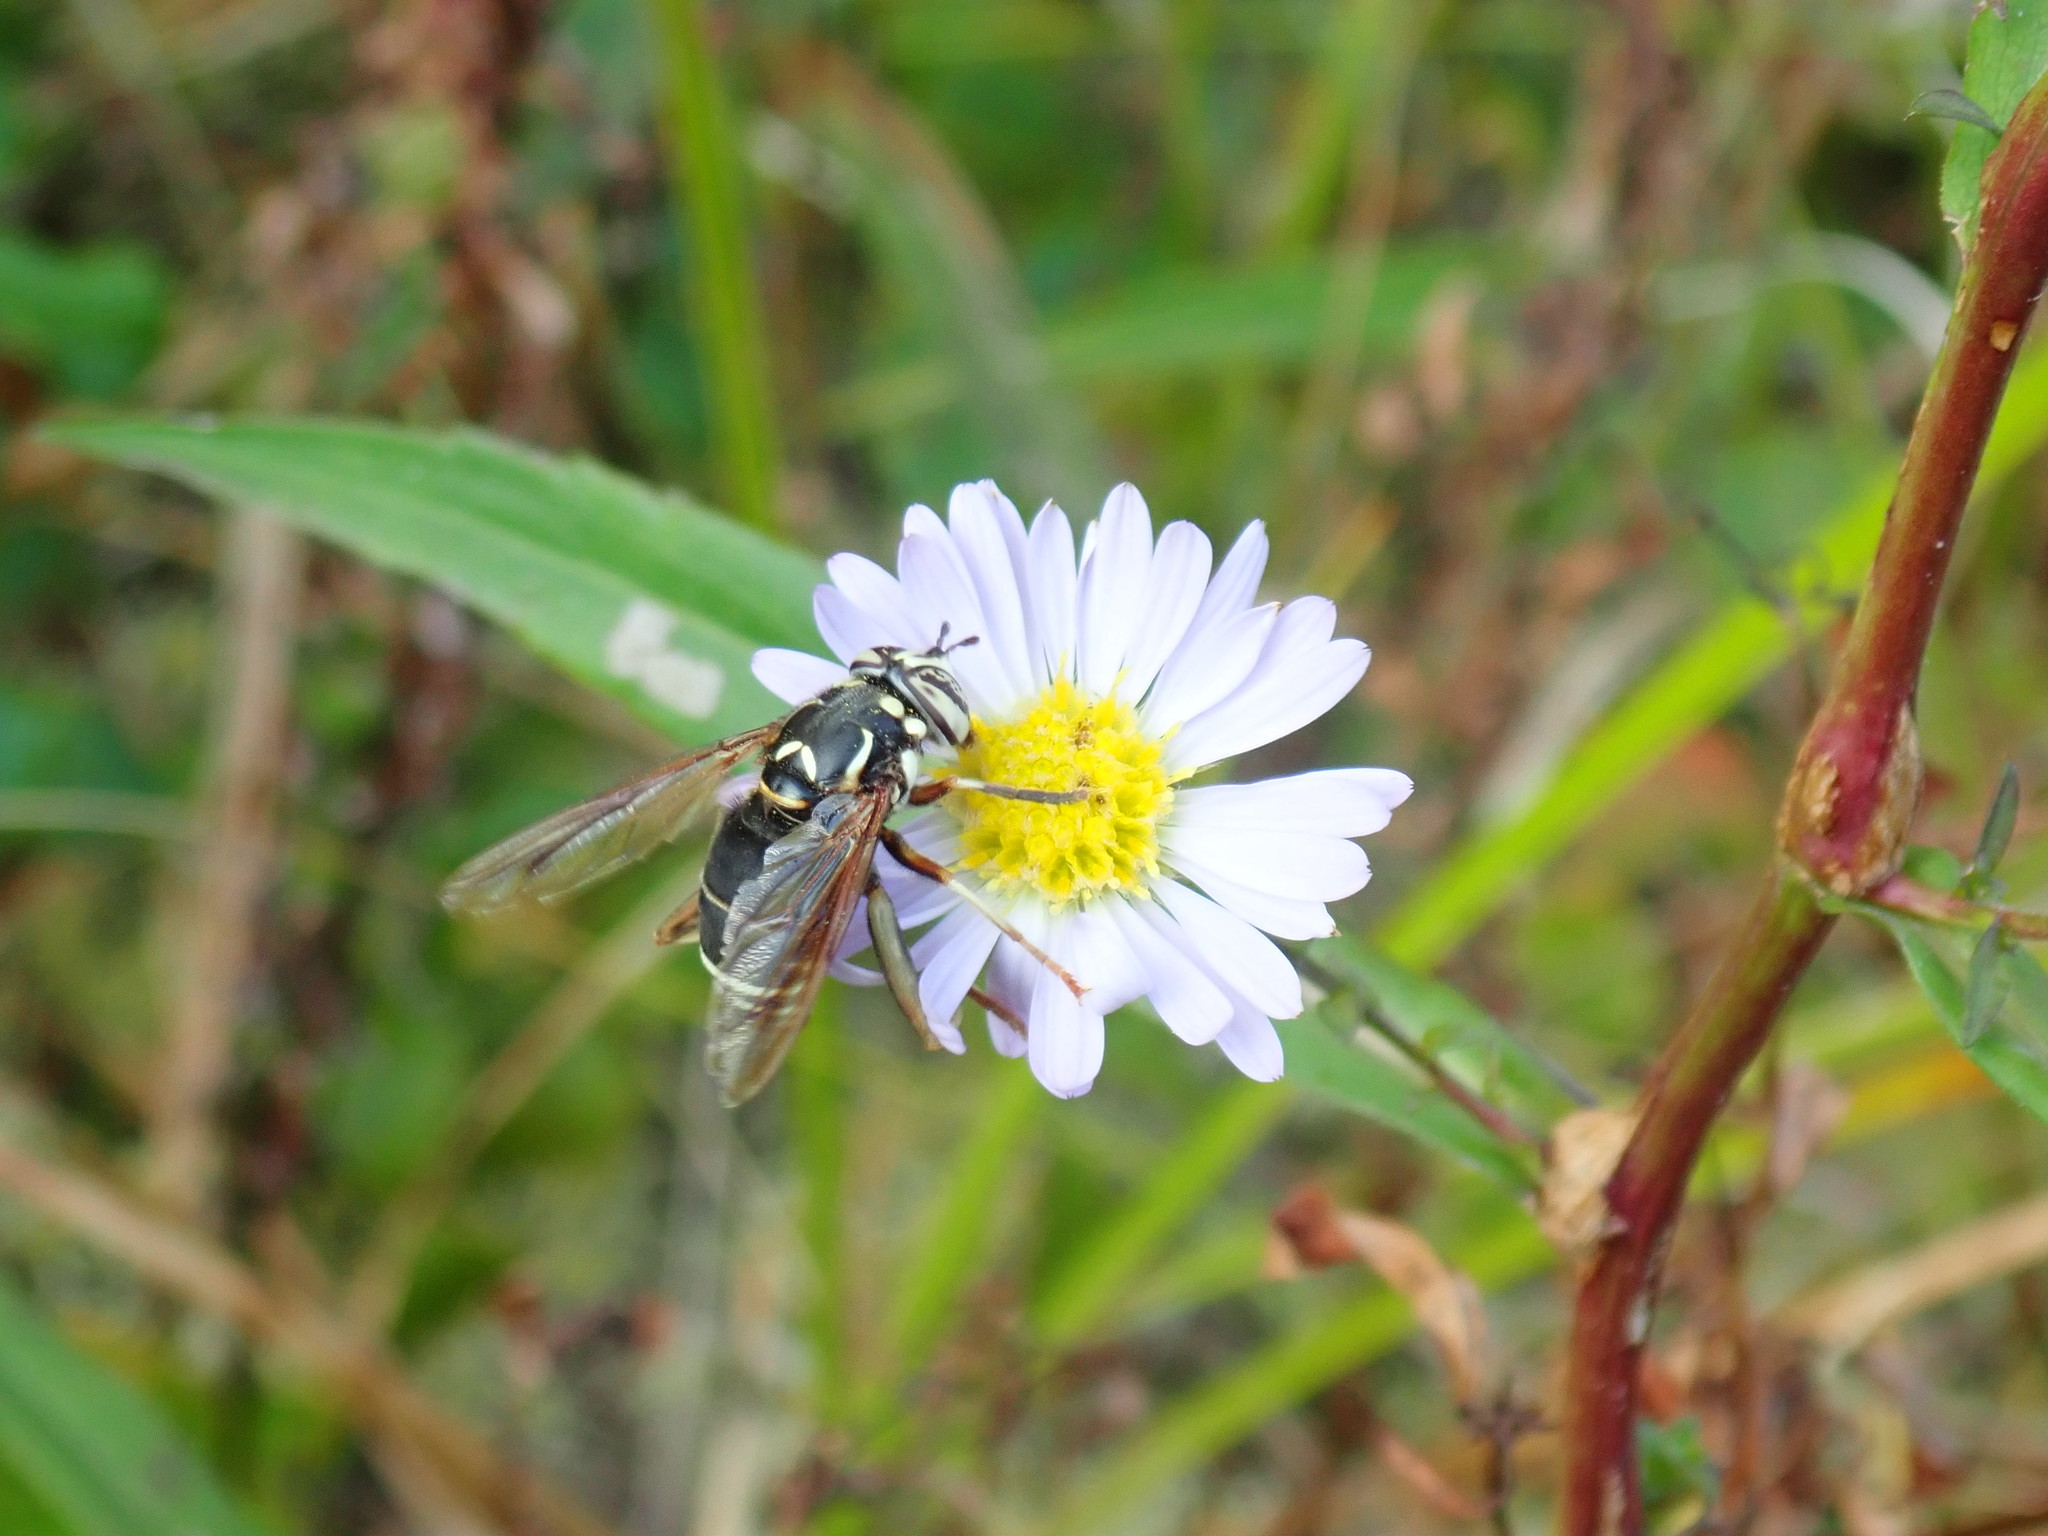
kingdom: Animalia
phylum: Arthropoda
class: Insecta
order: Diptera
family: Syrphidae
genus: Spilomyia
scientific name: Spilomyia fusca
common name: Bald-faced hornet fly
